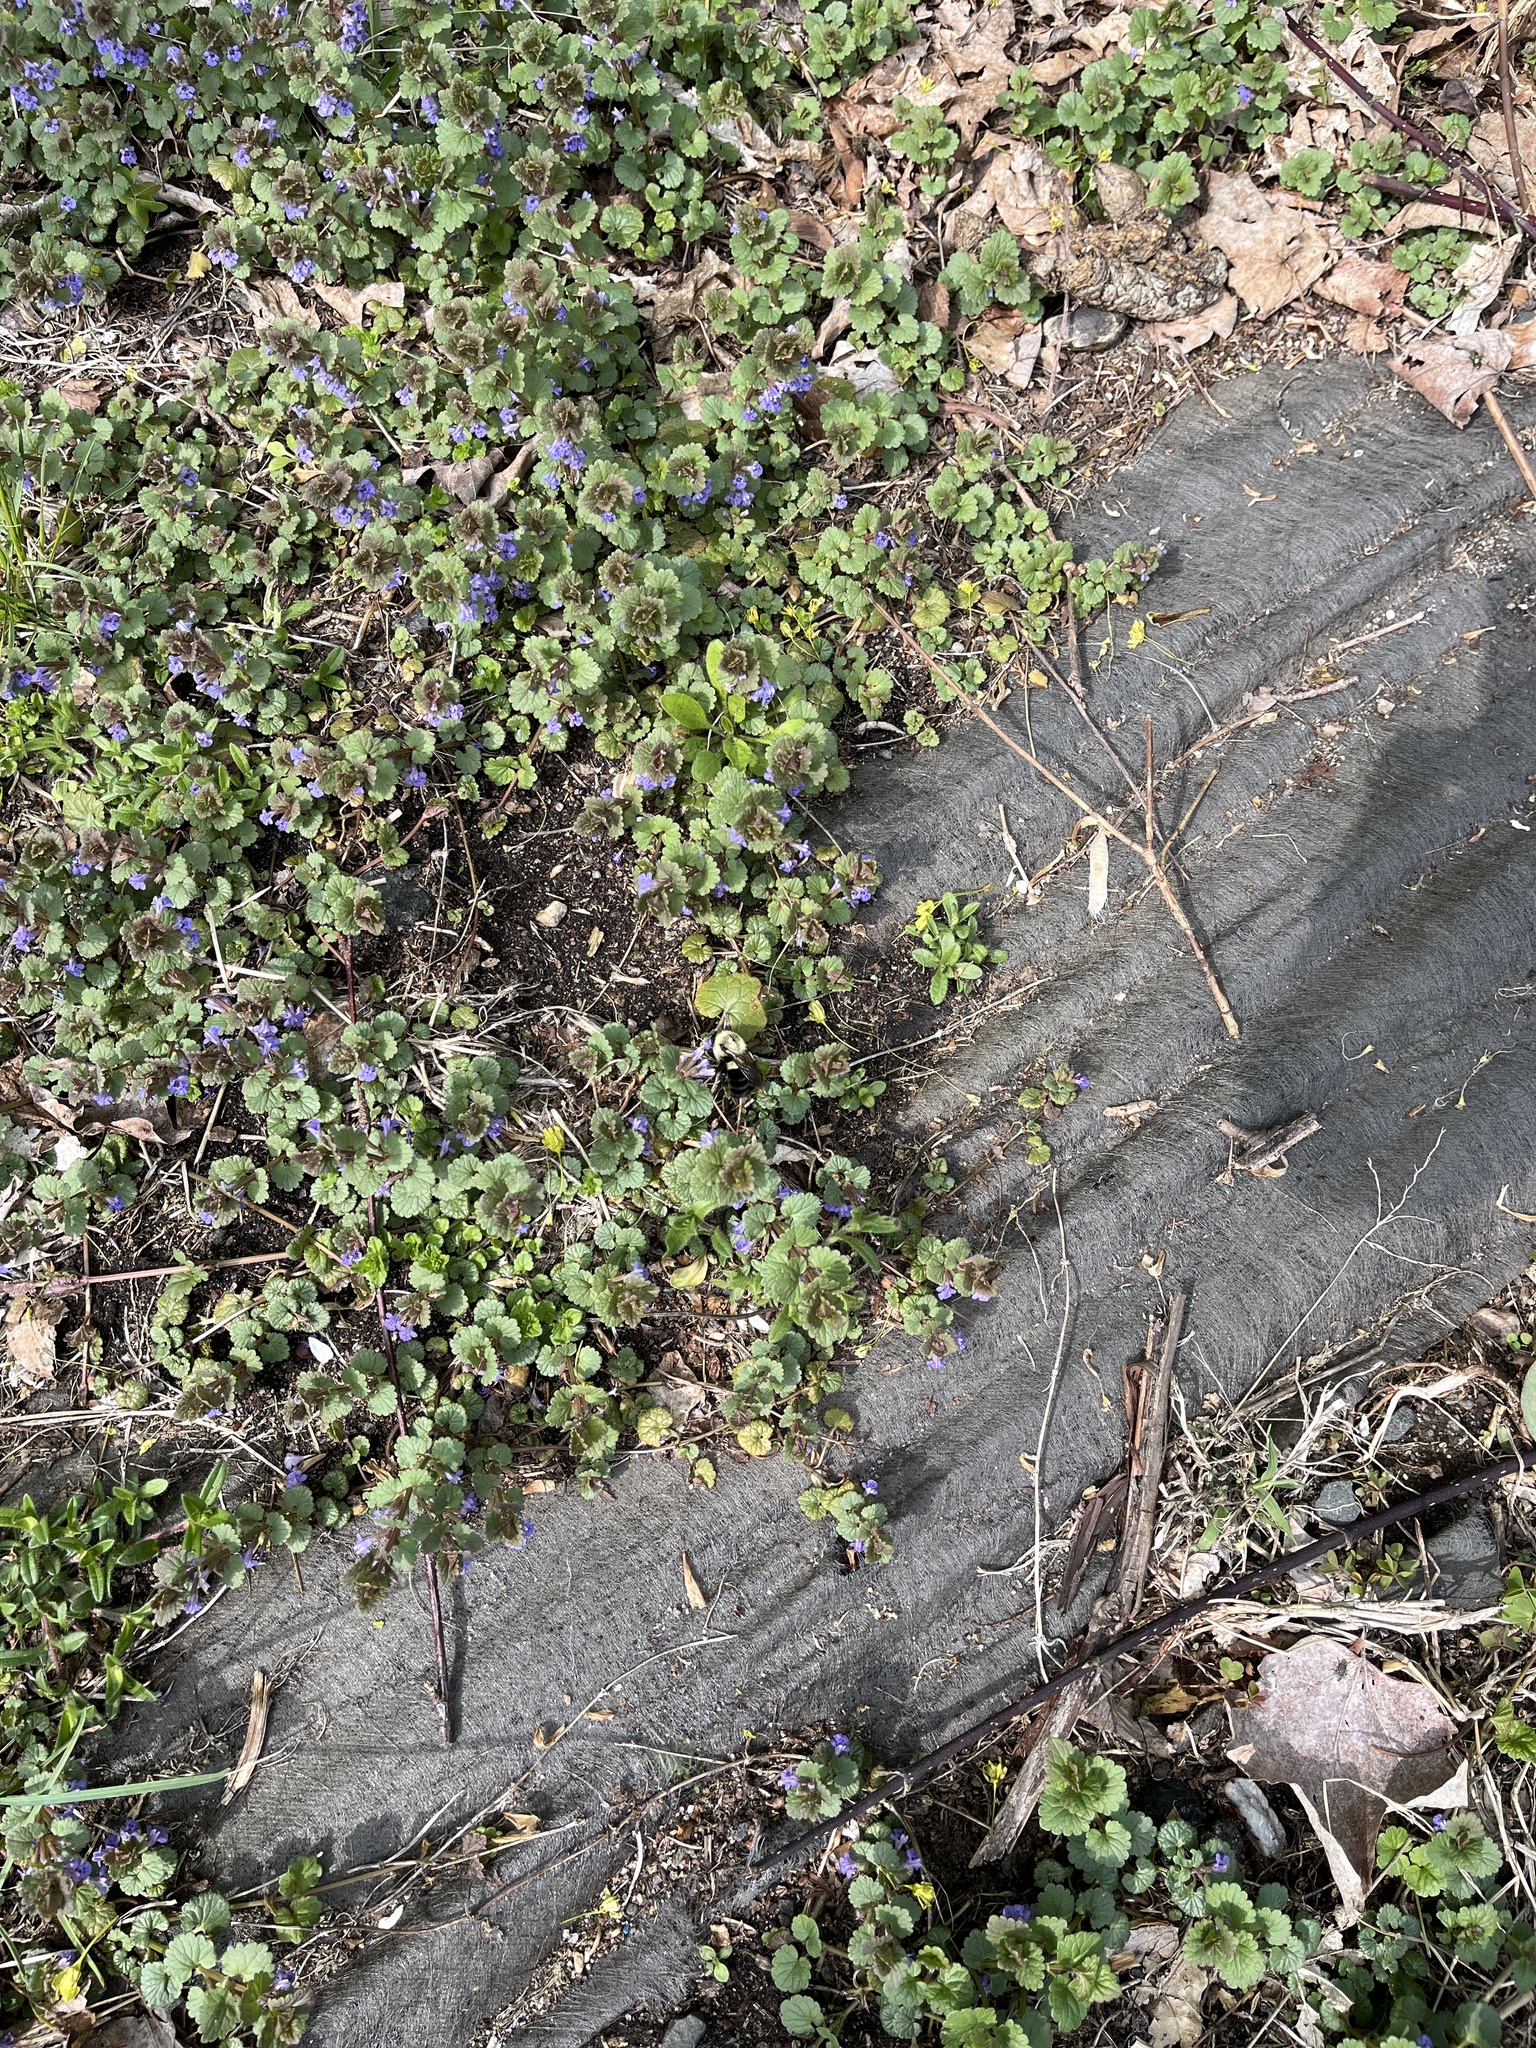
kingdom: Animalia
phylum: Arthropoda
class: Insecta
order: Hymenoptera
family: Apidae
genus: Bombus
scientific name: Bombus impatiens
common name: Common eastern bumble bee
